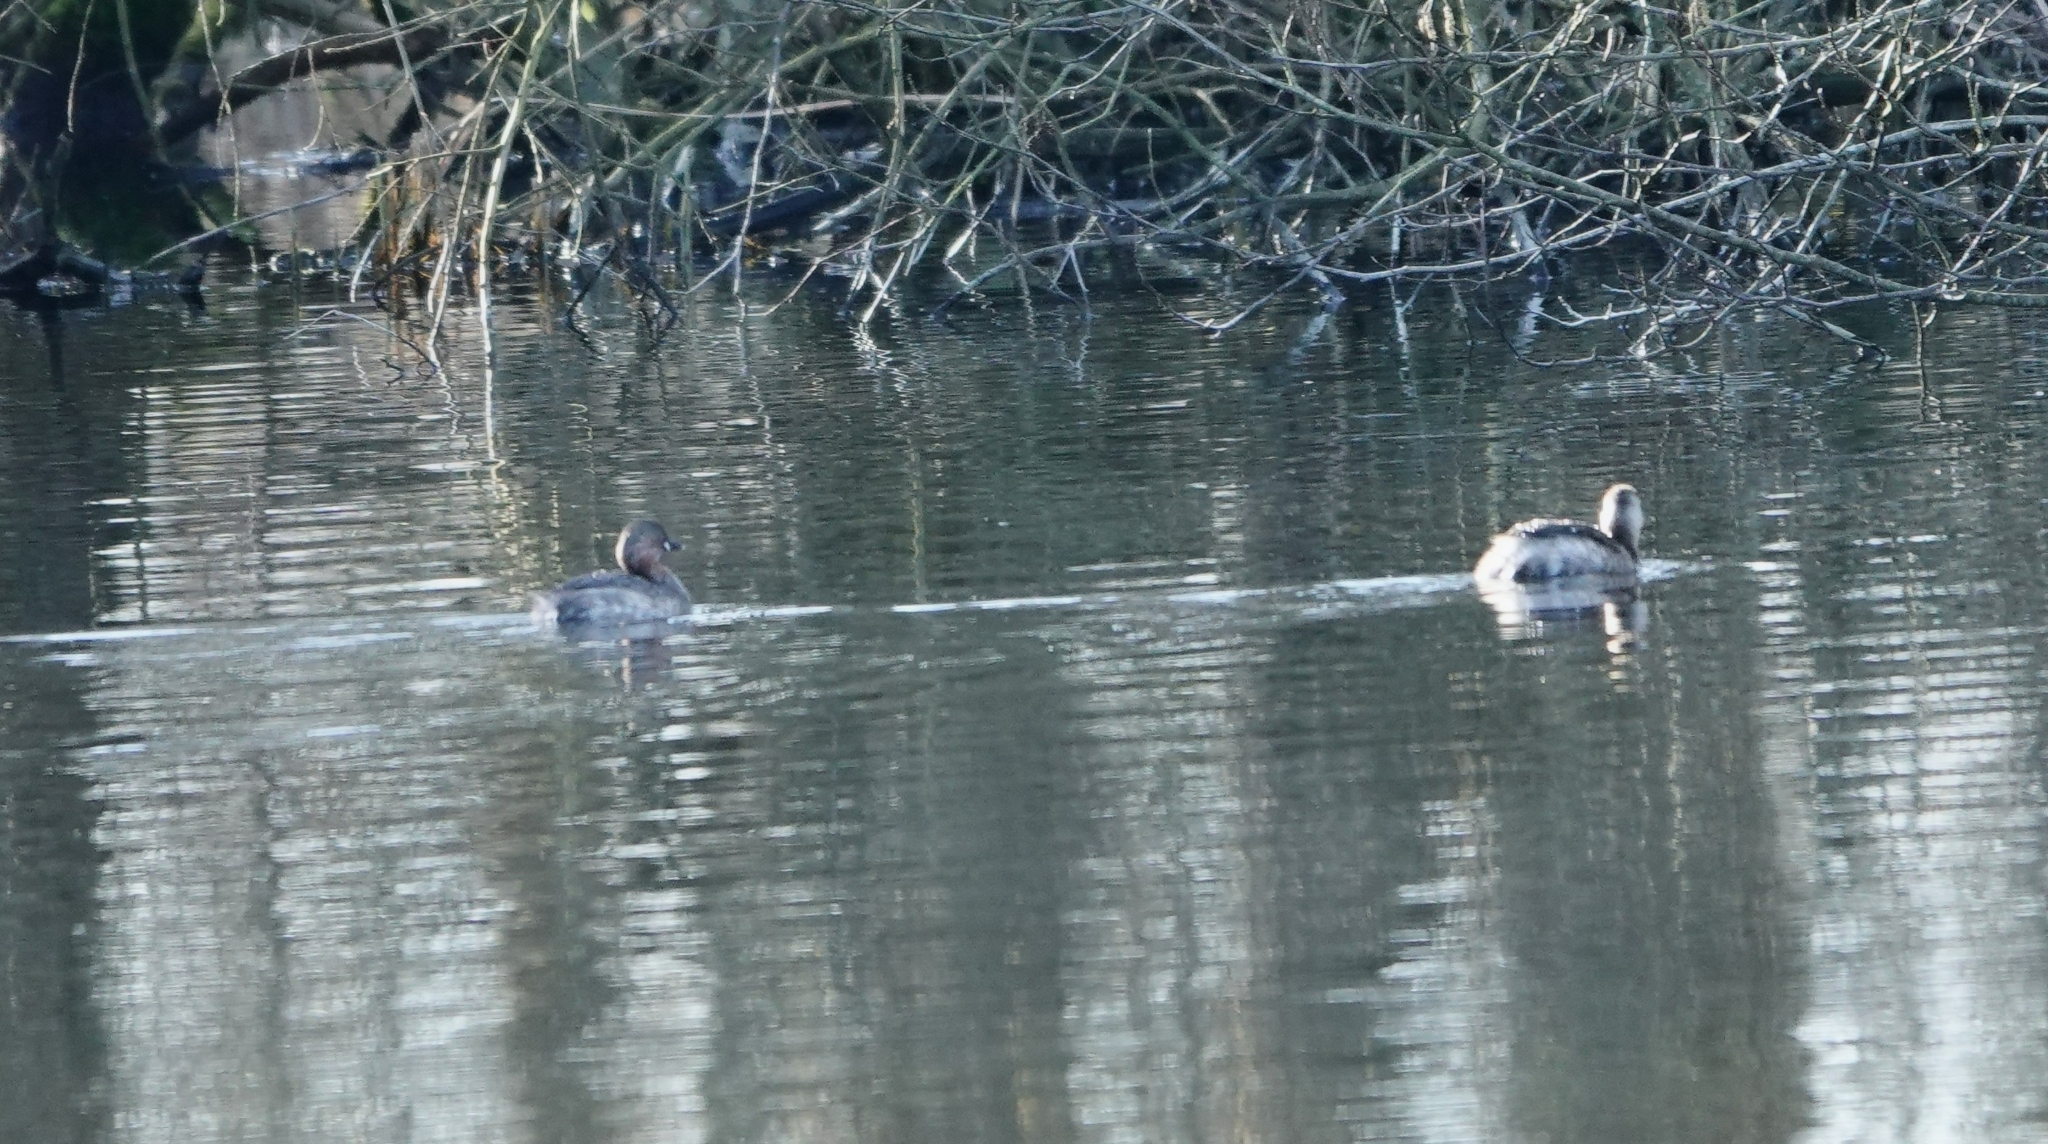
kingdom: Animalia
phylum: Chordata
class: Aves
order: Podicipediformes
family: Podicipedidae
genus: Tachybaptus
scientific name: Tachybaptus ruficollis
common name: Little grebe
